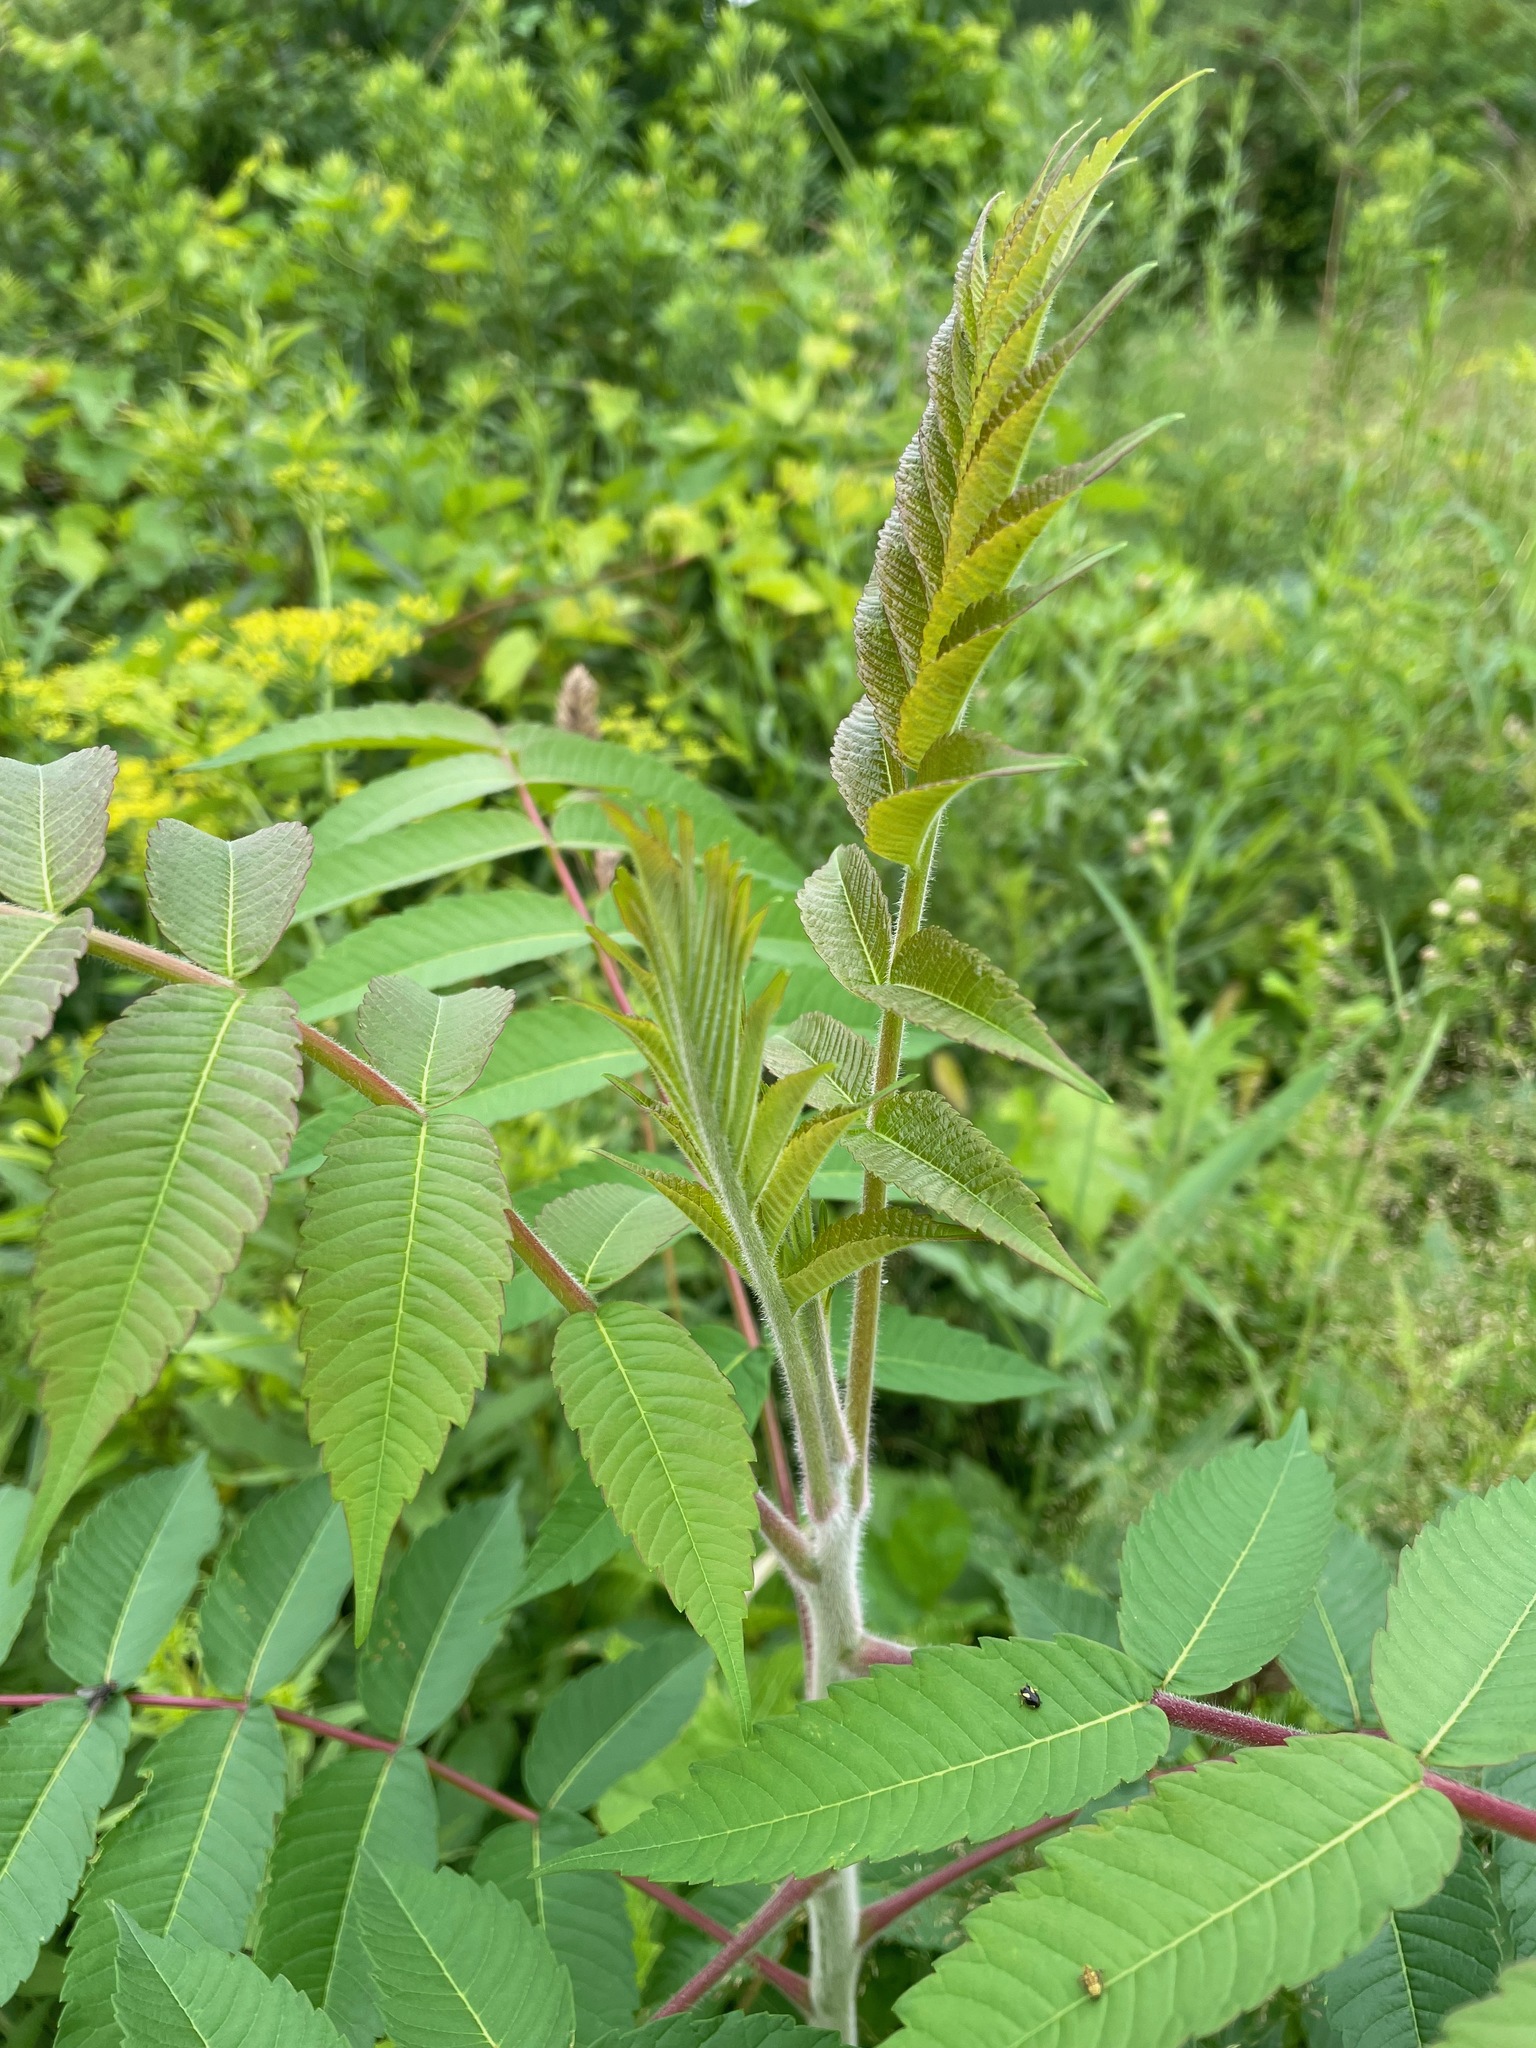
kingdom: Plantae
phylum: Tracheophyta
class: Magnoliopsida
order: Sapindales
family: Anacardiaceae
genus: Rhus
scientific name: Rhus typhina
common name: Staghorn sumac
